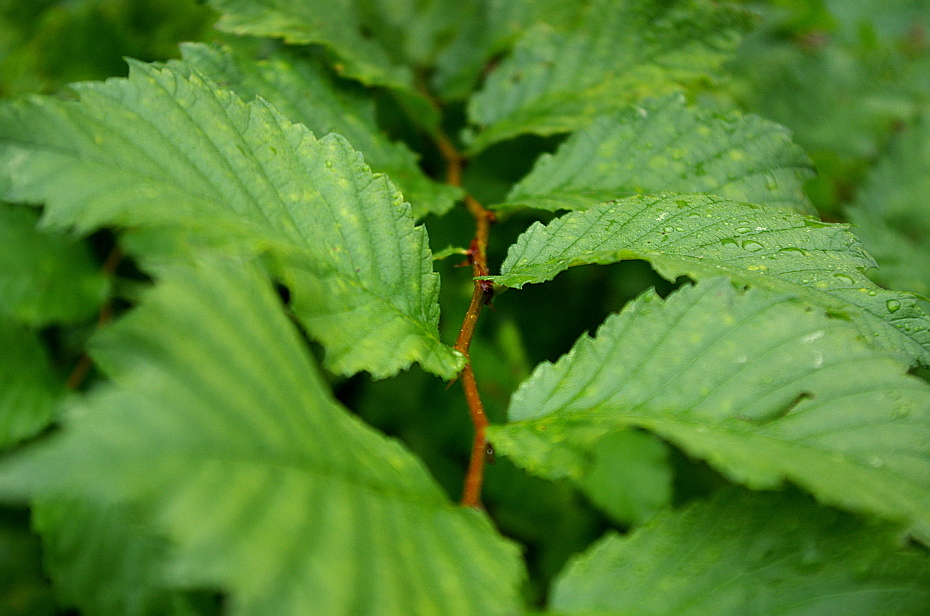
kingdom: Plantae
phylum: Tracheophyta
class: Magnoliopsida
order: Rosales
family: Ulmaceae
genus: Ulmus
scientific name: Ulmus laevis
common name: European white-elm
